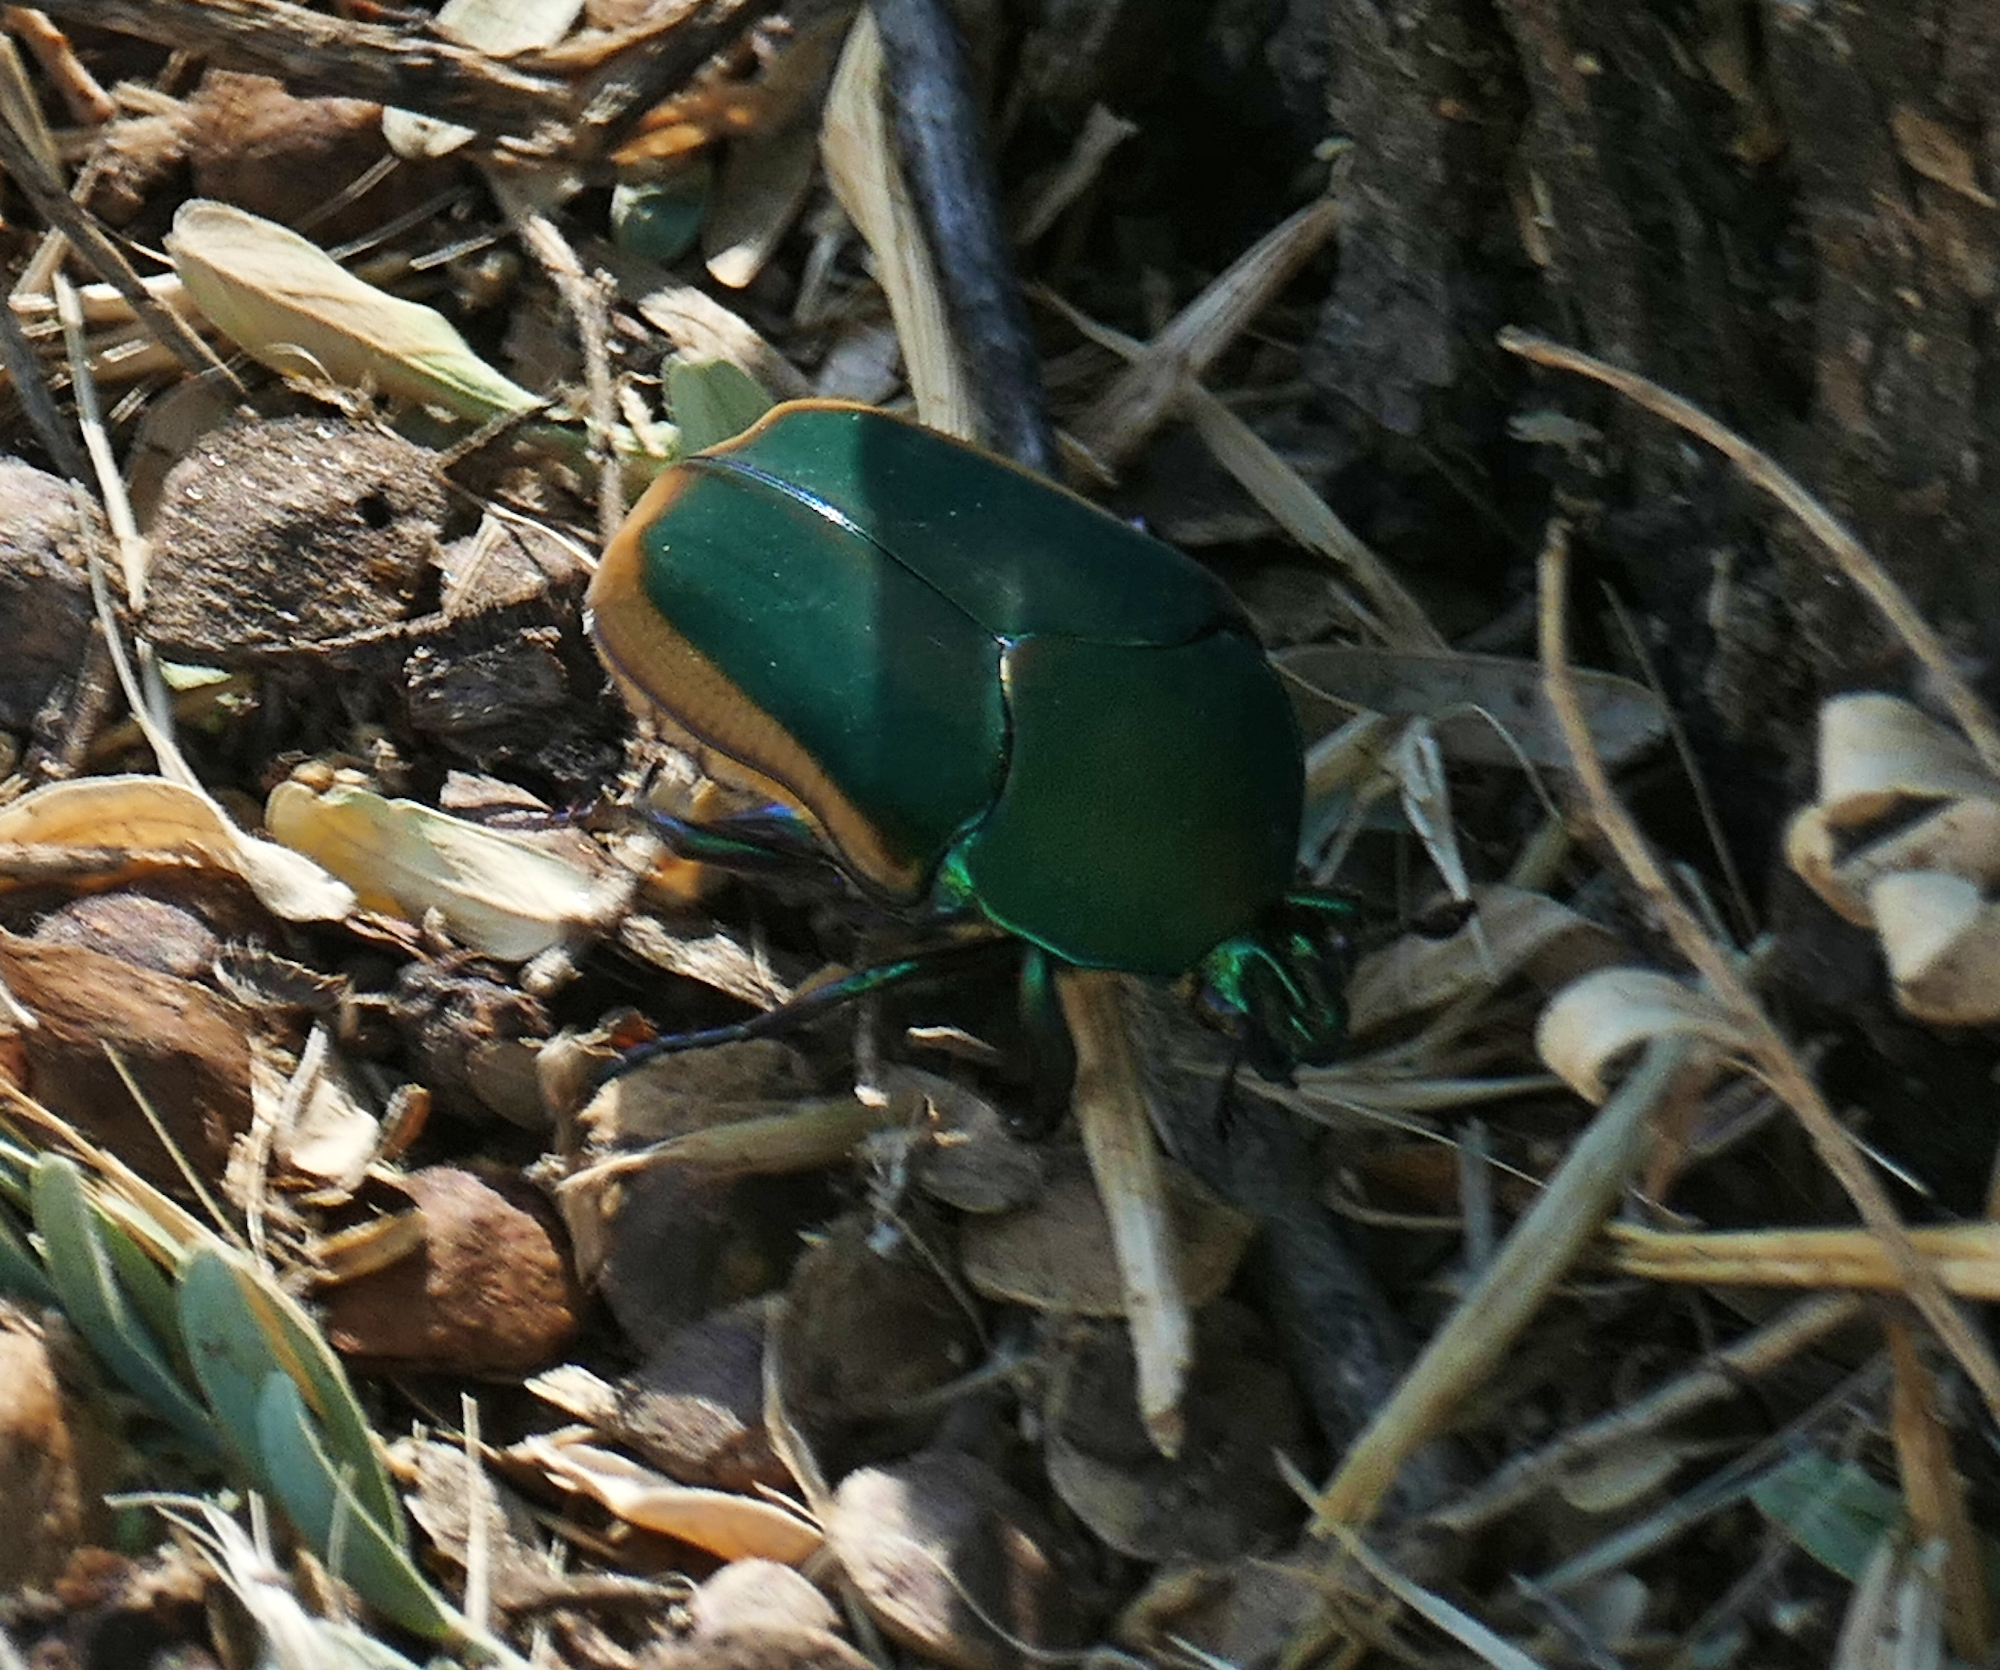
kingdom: Animalia
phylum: Arthropoda
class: Insecta
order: Coleoptera
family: Scarabaeidae
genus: Cotinis
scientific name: Cotinis mutabilis
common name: Figeater beetle
